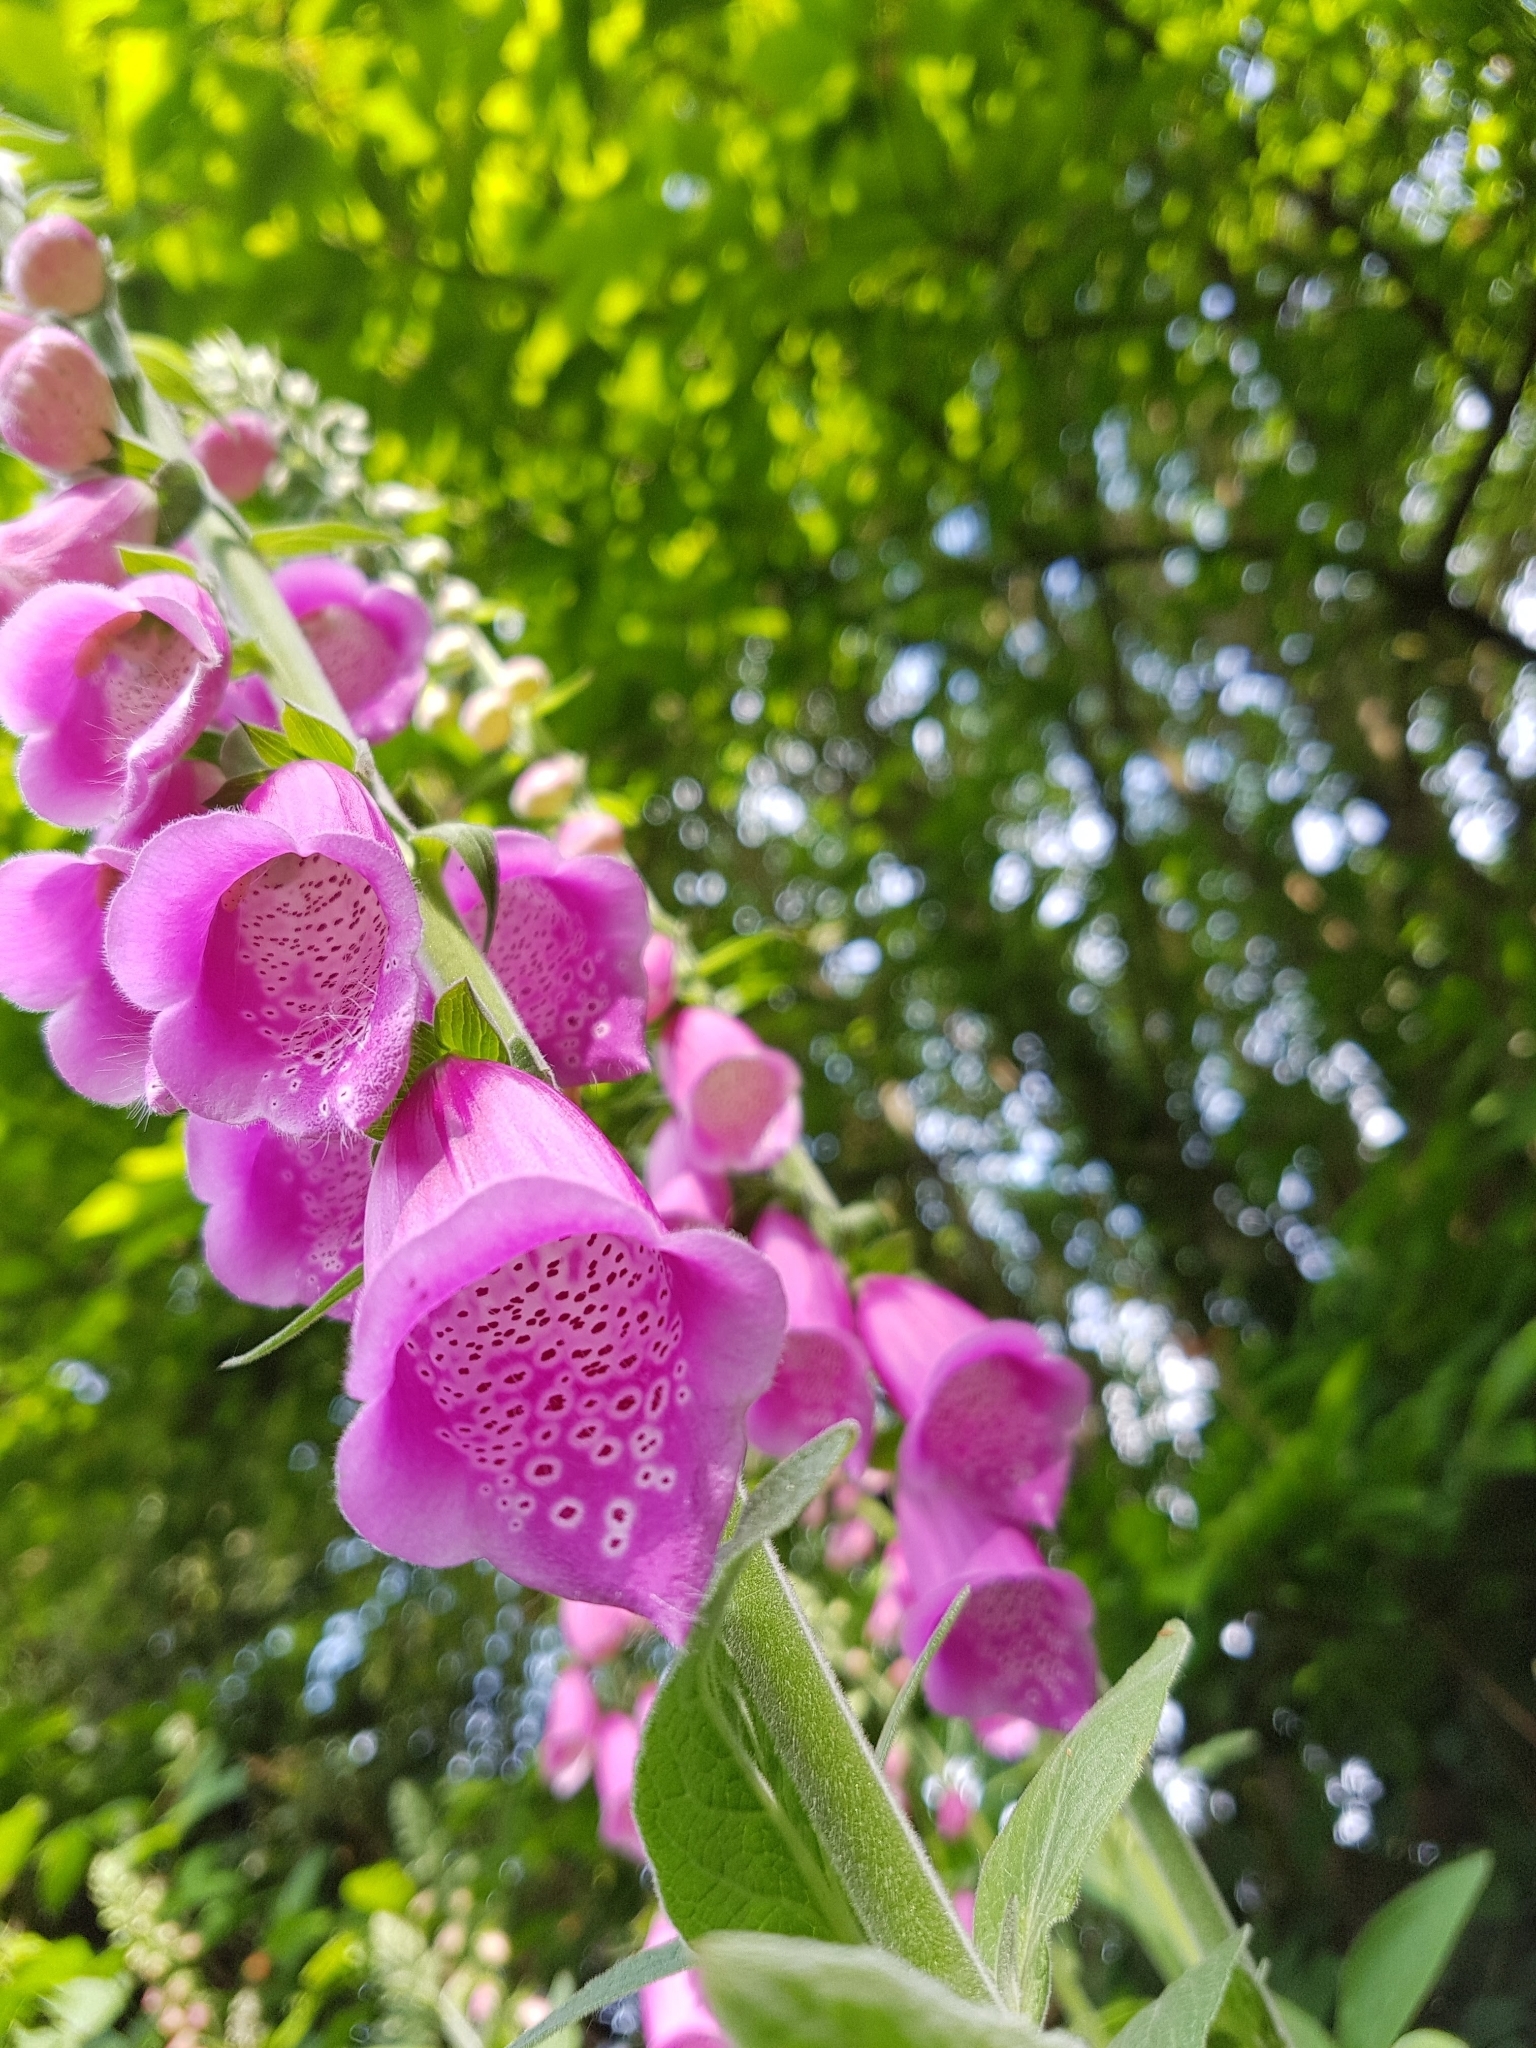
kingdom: Plantae
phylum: Tracheophyta
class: Magnoliopsida
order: Lamiales
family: Plantaginaceae
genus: Digitalis
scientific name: Digitalis purpurea
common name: Foxglove
